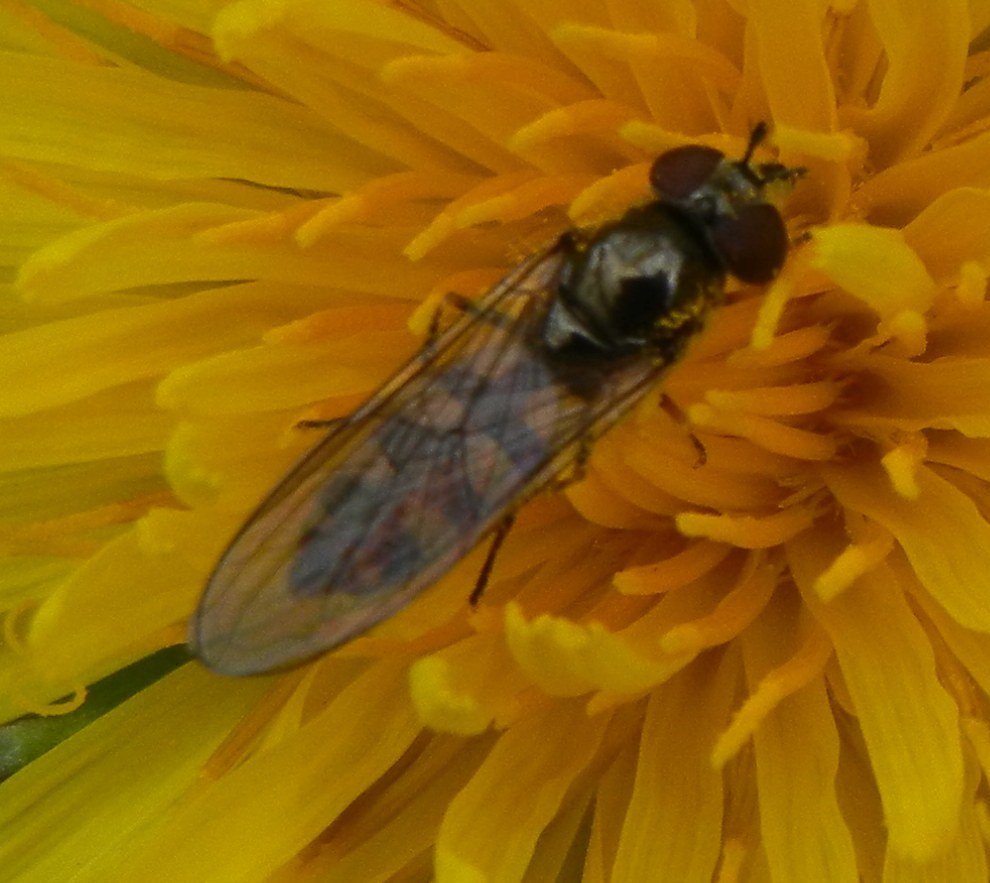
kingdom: Animalia
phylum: Arthropoda
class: Insecta
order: Diptera
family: Syrphidae
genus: Platycheirus
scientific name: Platycheirus ciliger
